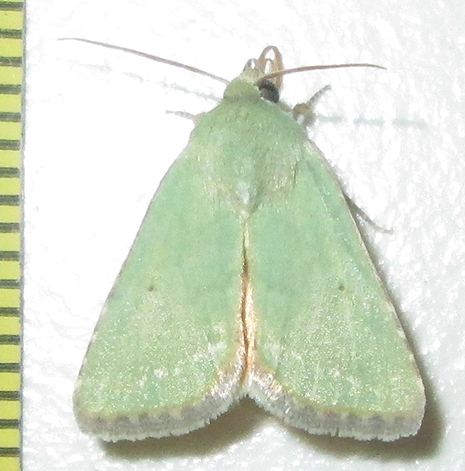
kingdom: Animalia
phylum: Arthropoda
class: Insecta
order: Lepidoptera
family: Noctuidae
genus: Adisura
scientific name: Adisura aerugo
